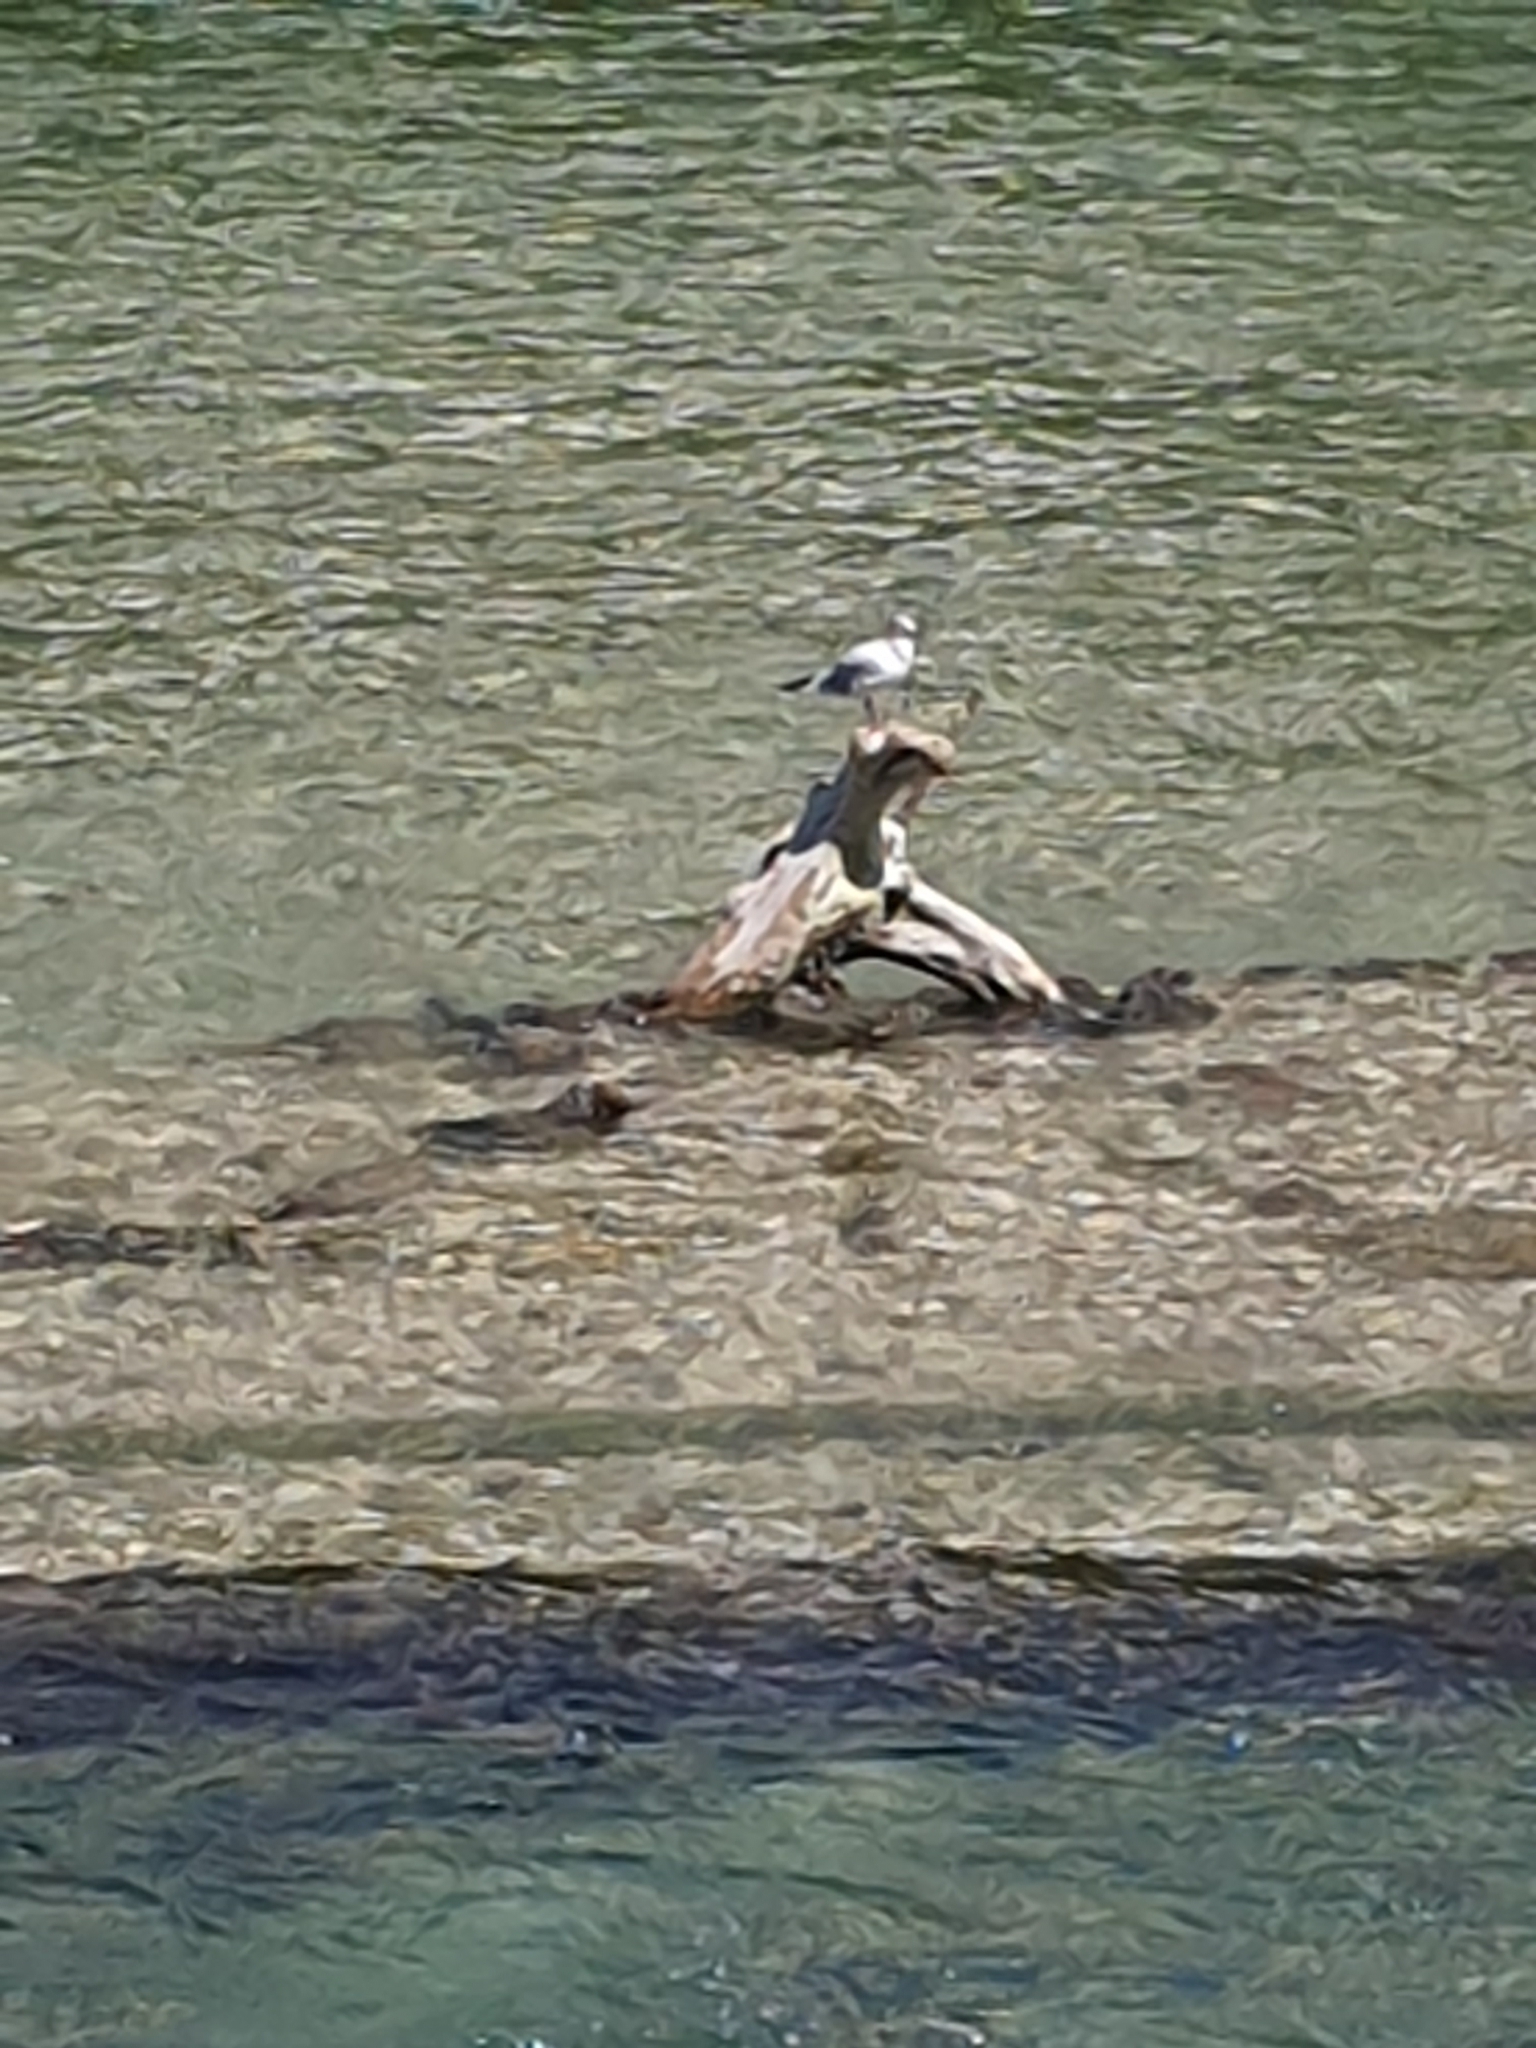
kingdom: Animalia
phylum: Chordata
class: Aves
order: Charadriiformes
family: Laridae
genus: Chroicocephalus
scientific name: Chroicocephalus ridibundus
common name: Black-headed gull
